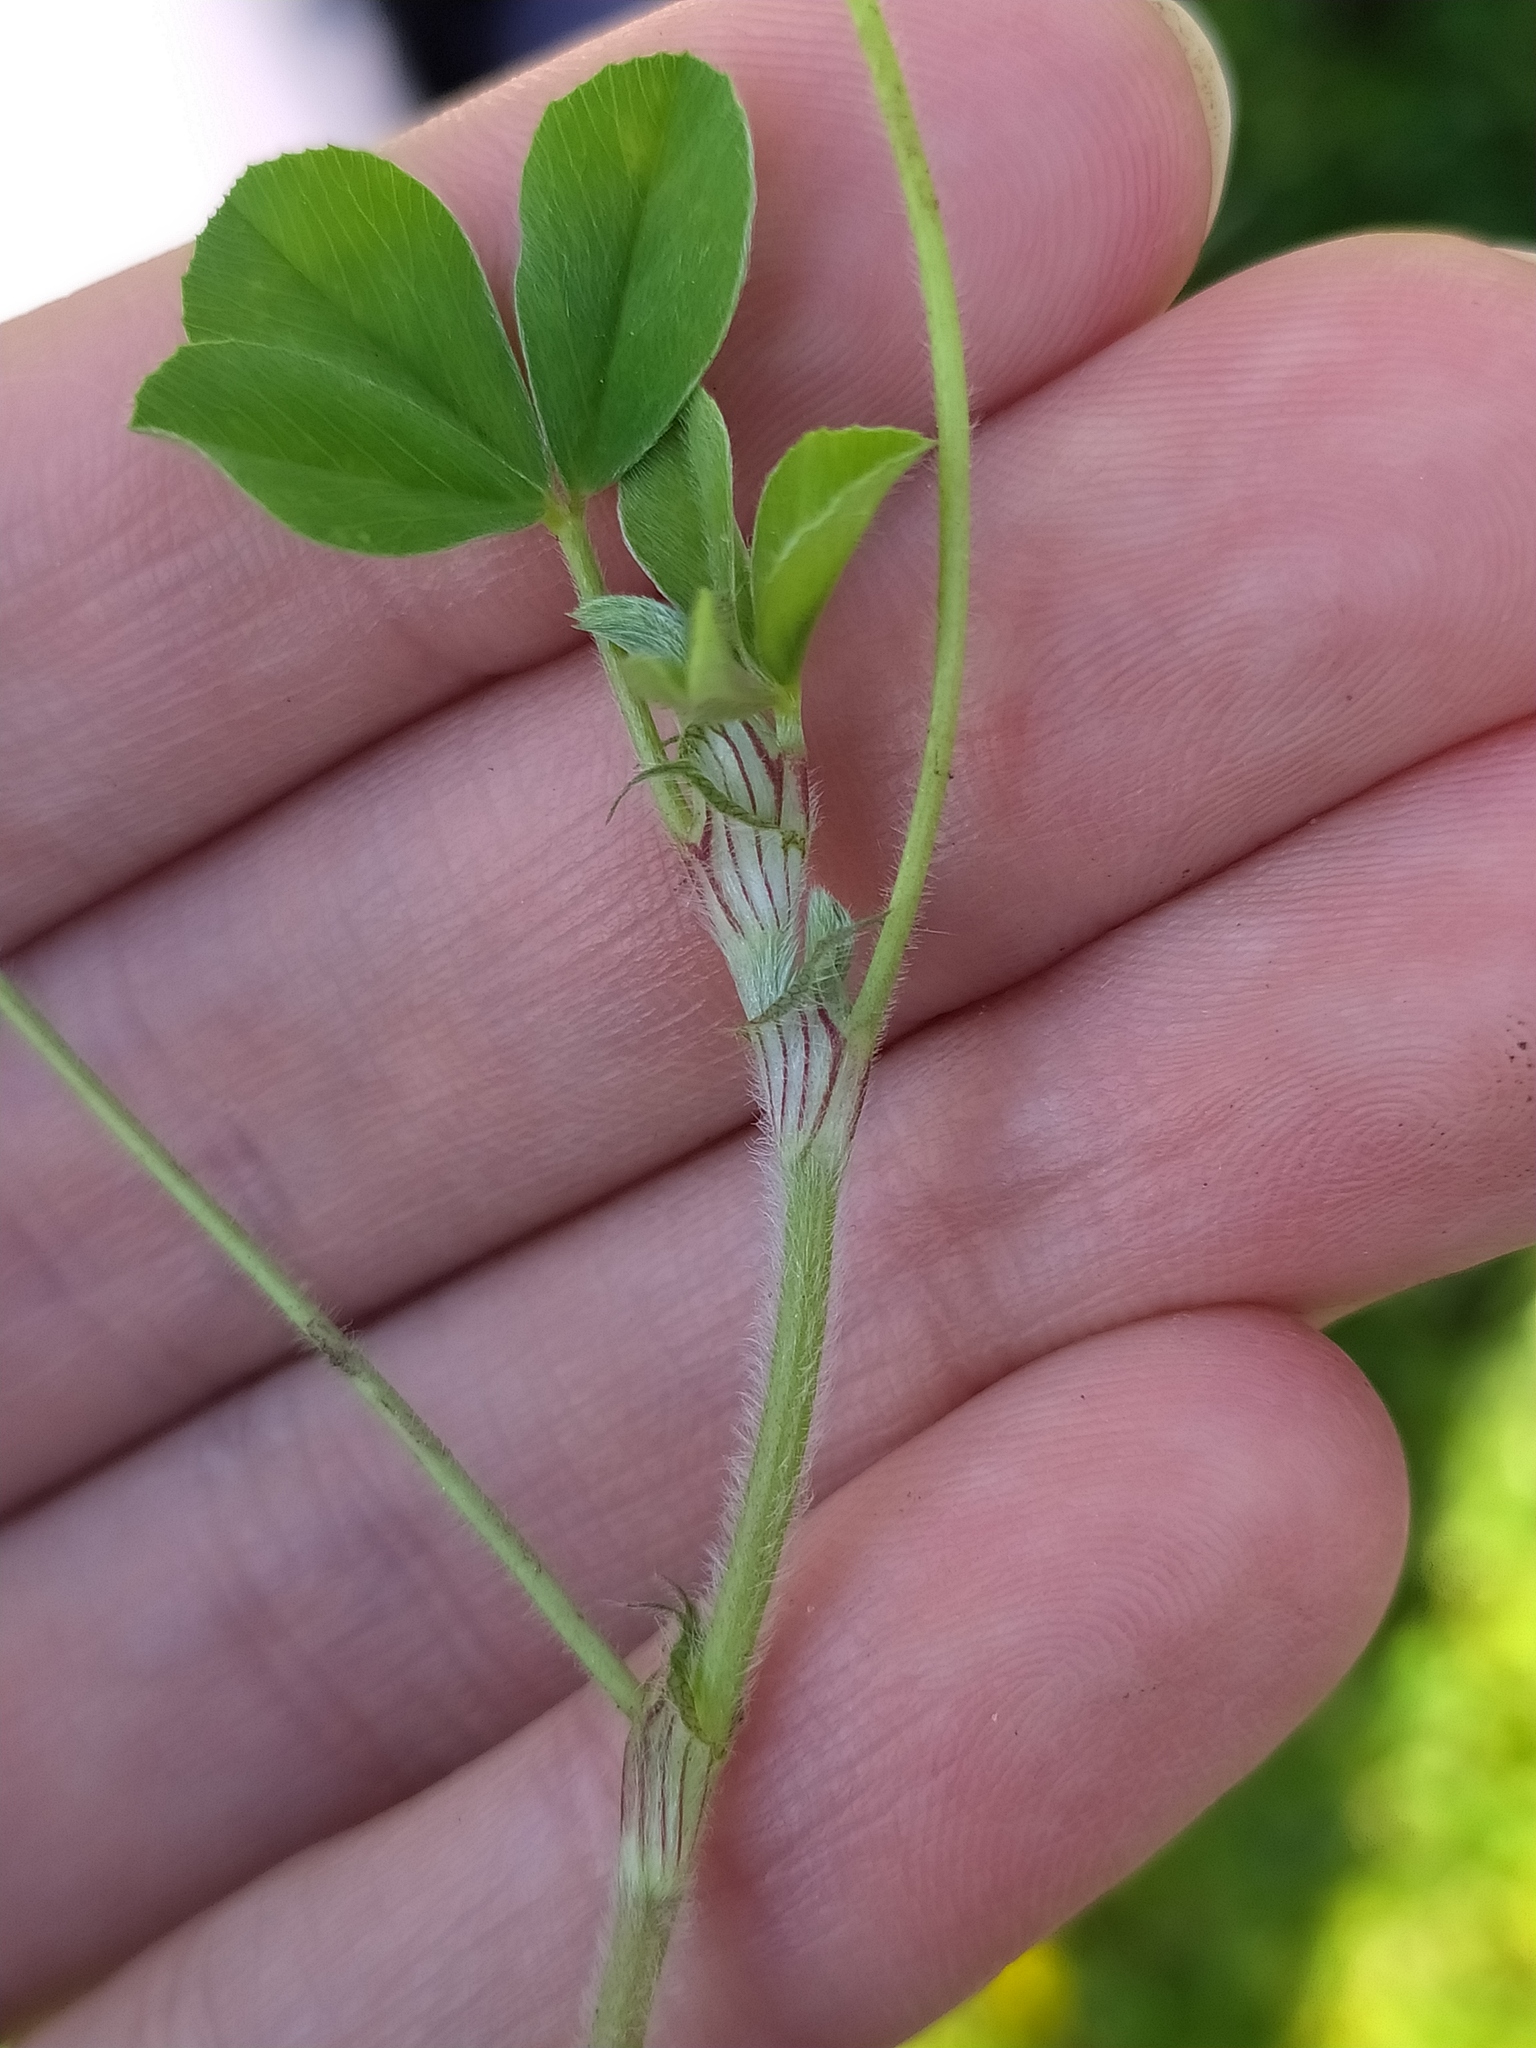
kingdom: Plantae
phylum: Tracheophyta
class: Magnoliopsida
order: Fabales
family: Fabaceae
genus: Trifolium
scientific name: Trifolium striatum
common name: Knotted clover
